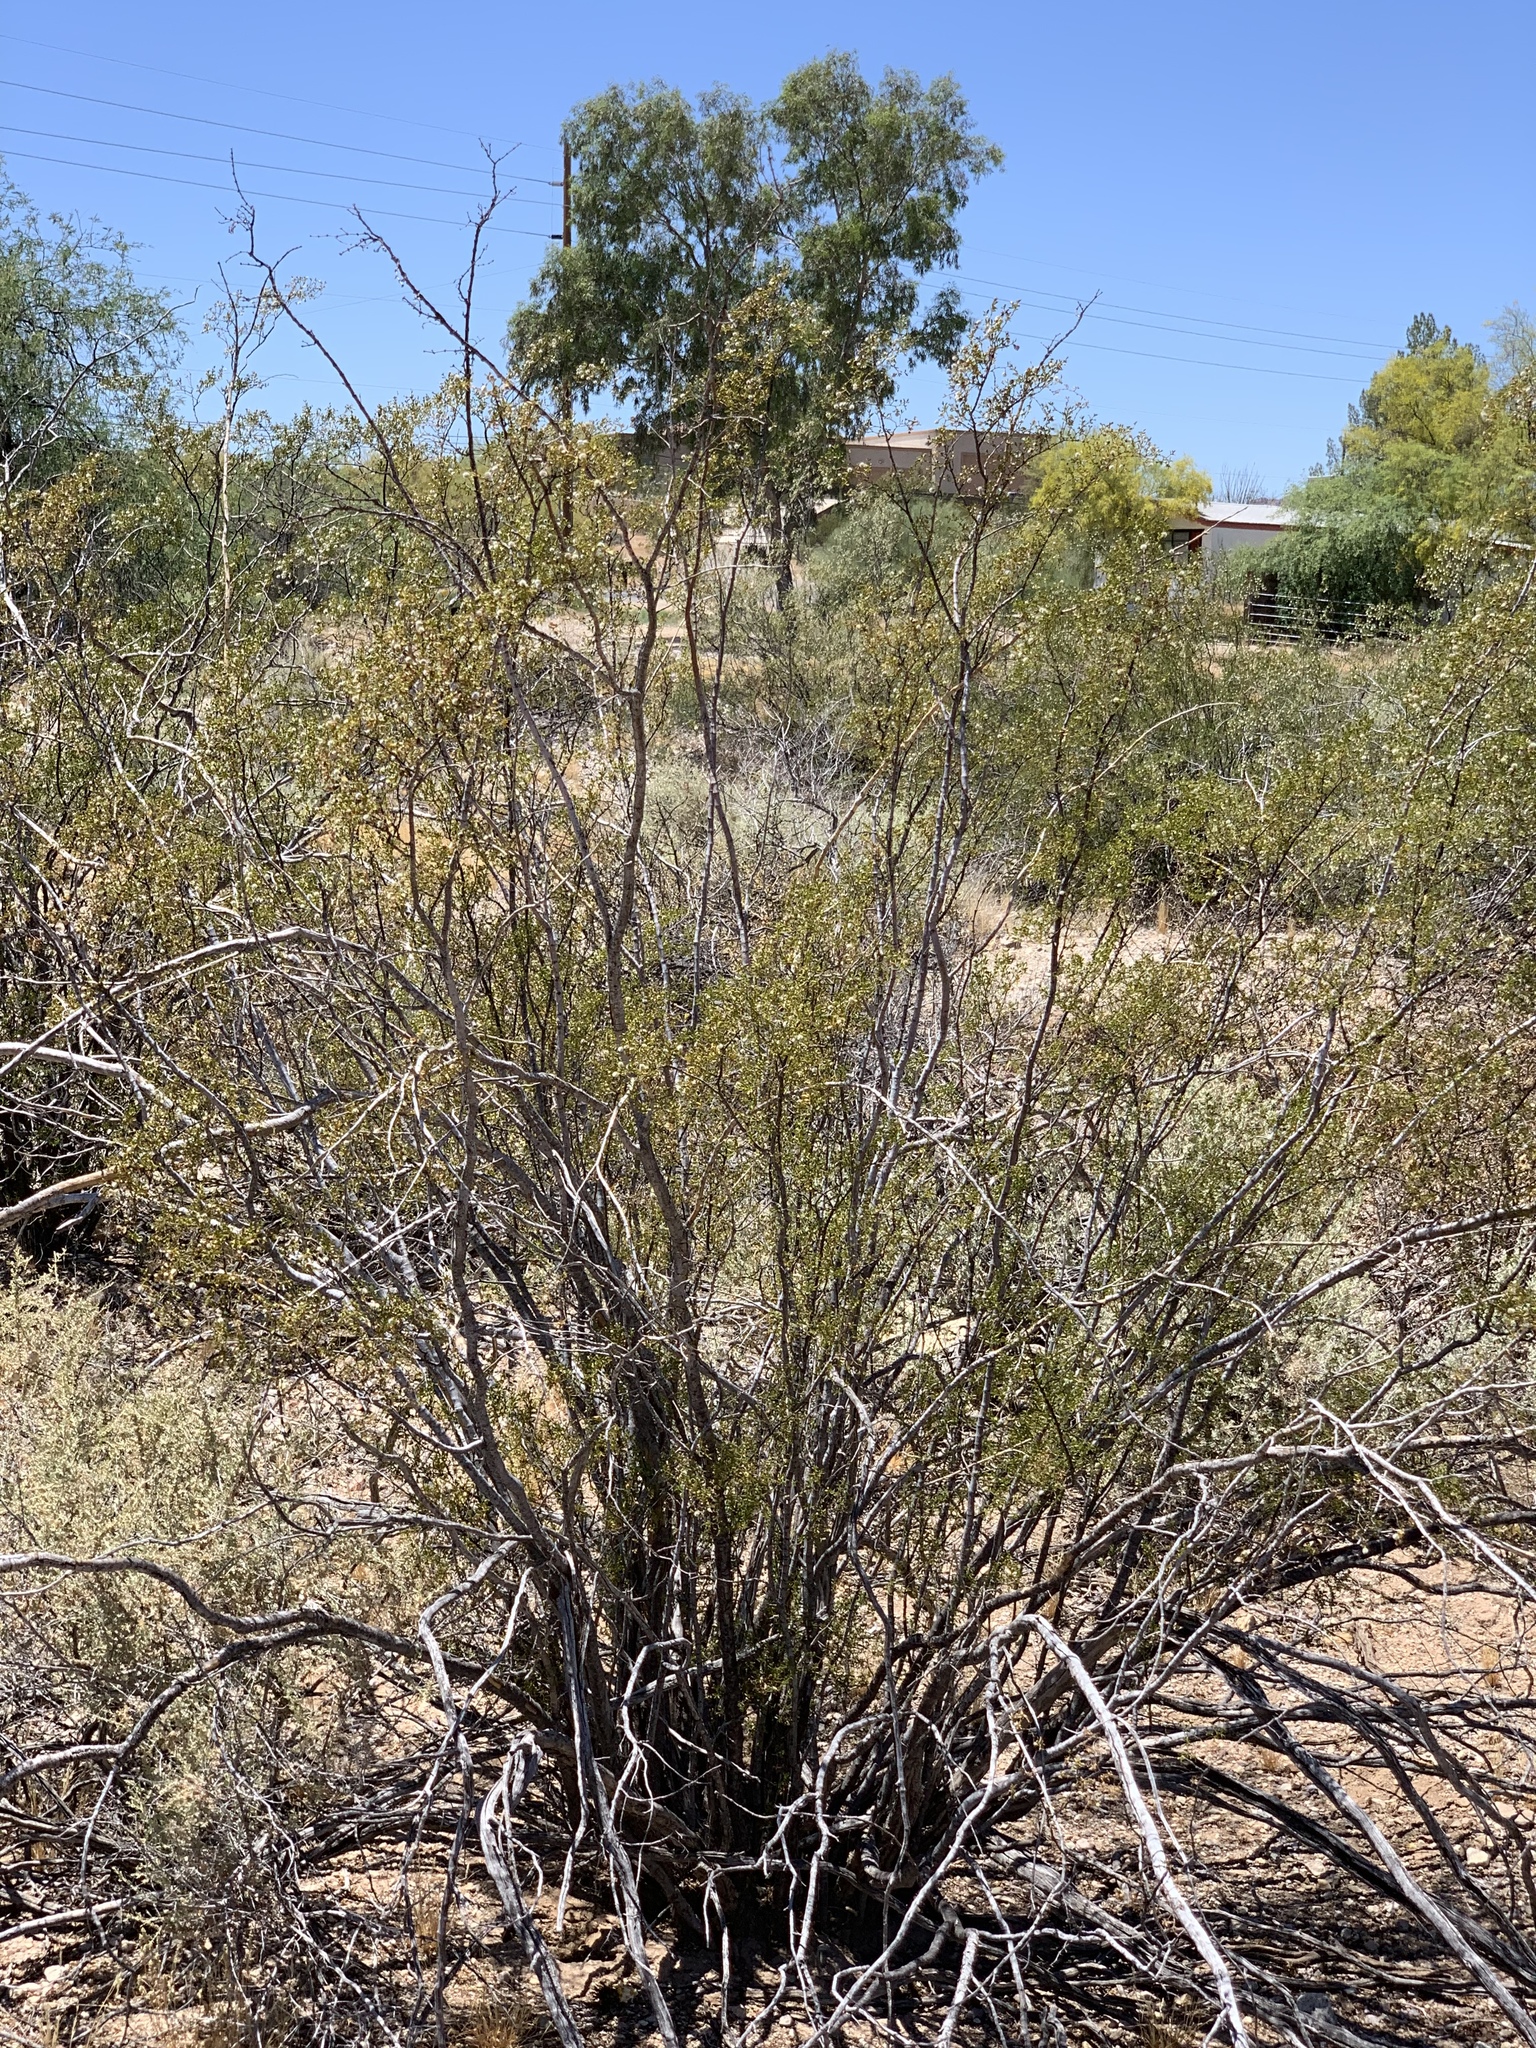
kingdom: Plantae
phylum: Tracheophyta
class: Magnoliopsida
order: Zygophyllales
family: Zygophyllaceae
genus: Larrea
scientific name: Larrea tridentata
